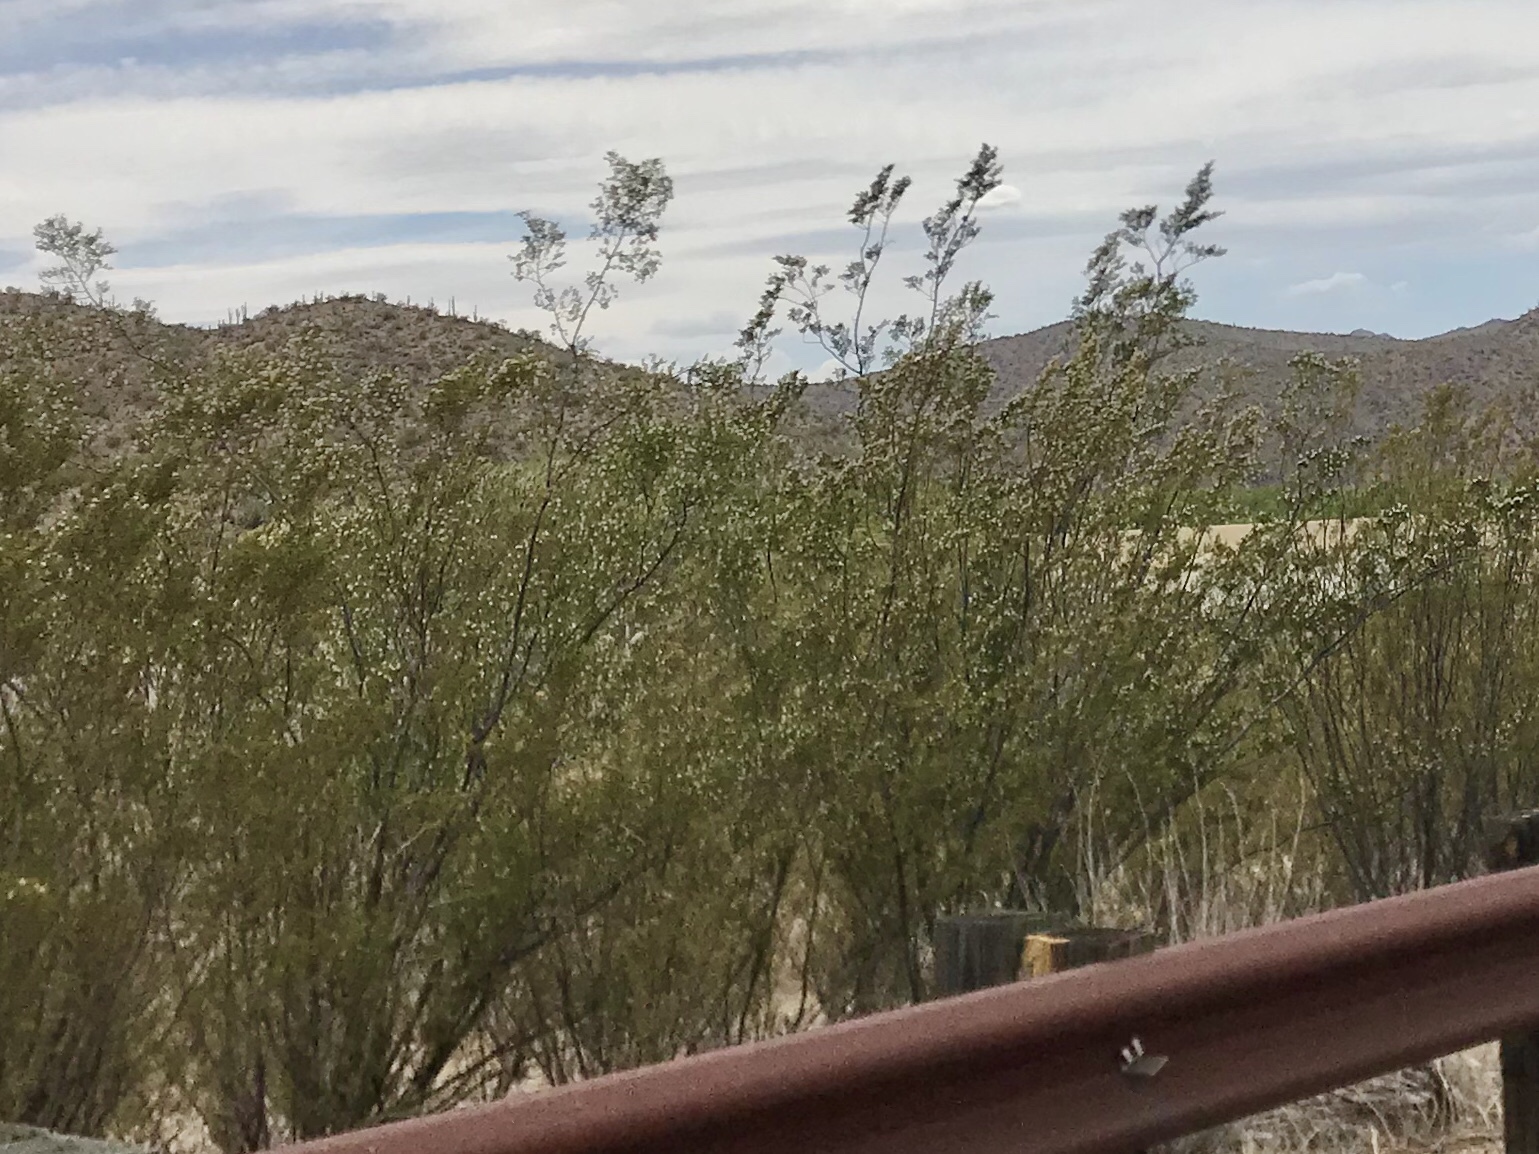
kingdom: Plantae
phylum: Tracheophyta
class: Magnoliopsida
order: Zygophyllales
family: Zygophyllaceae
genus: Larrea
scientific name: Larrea tridentata
